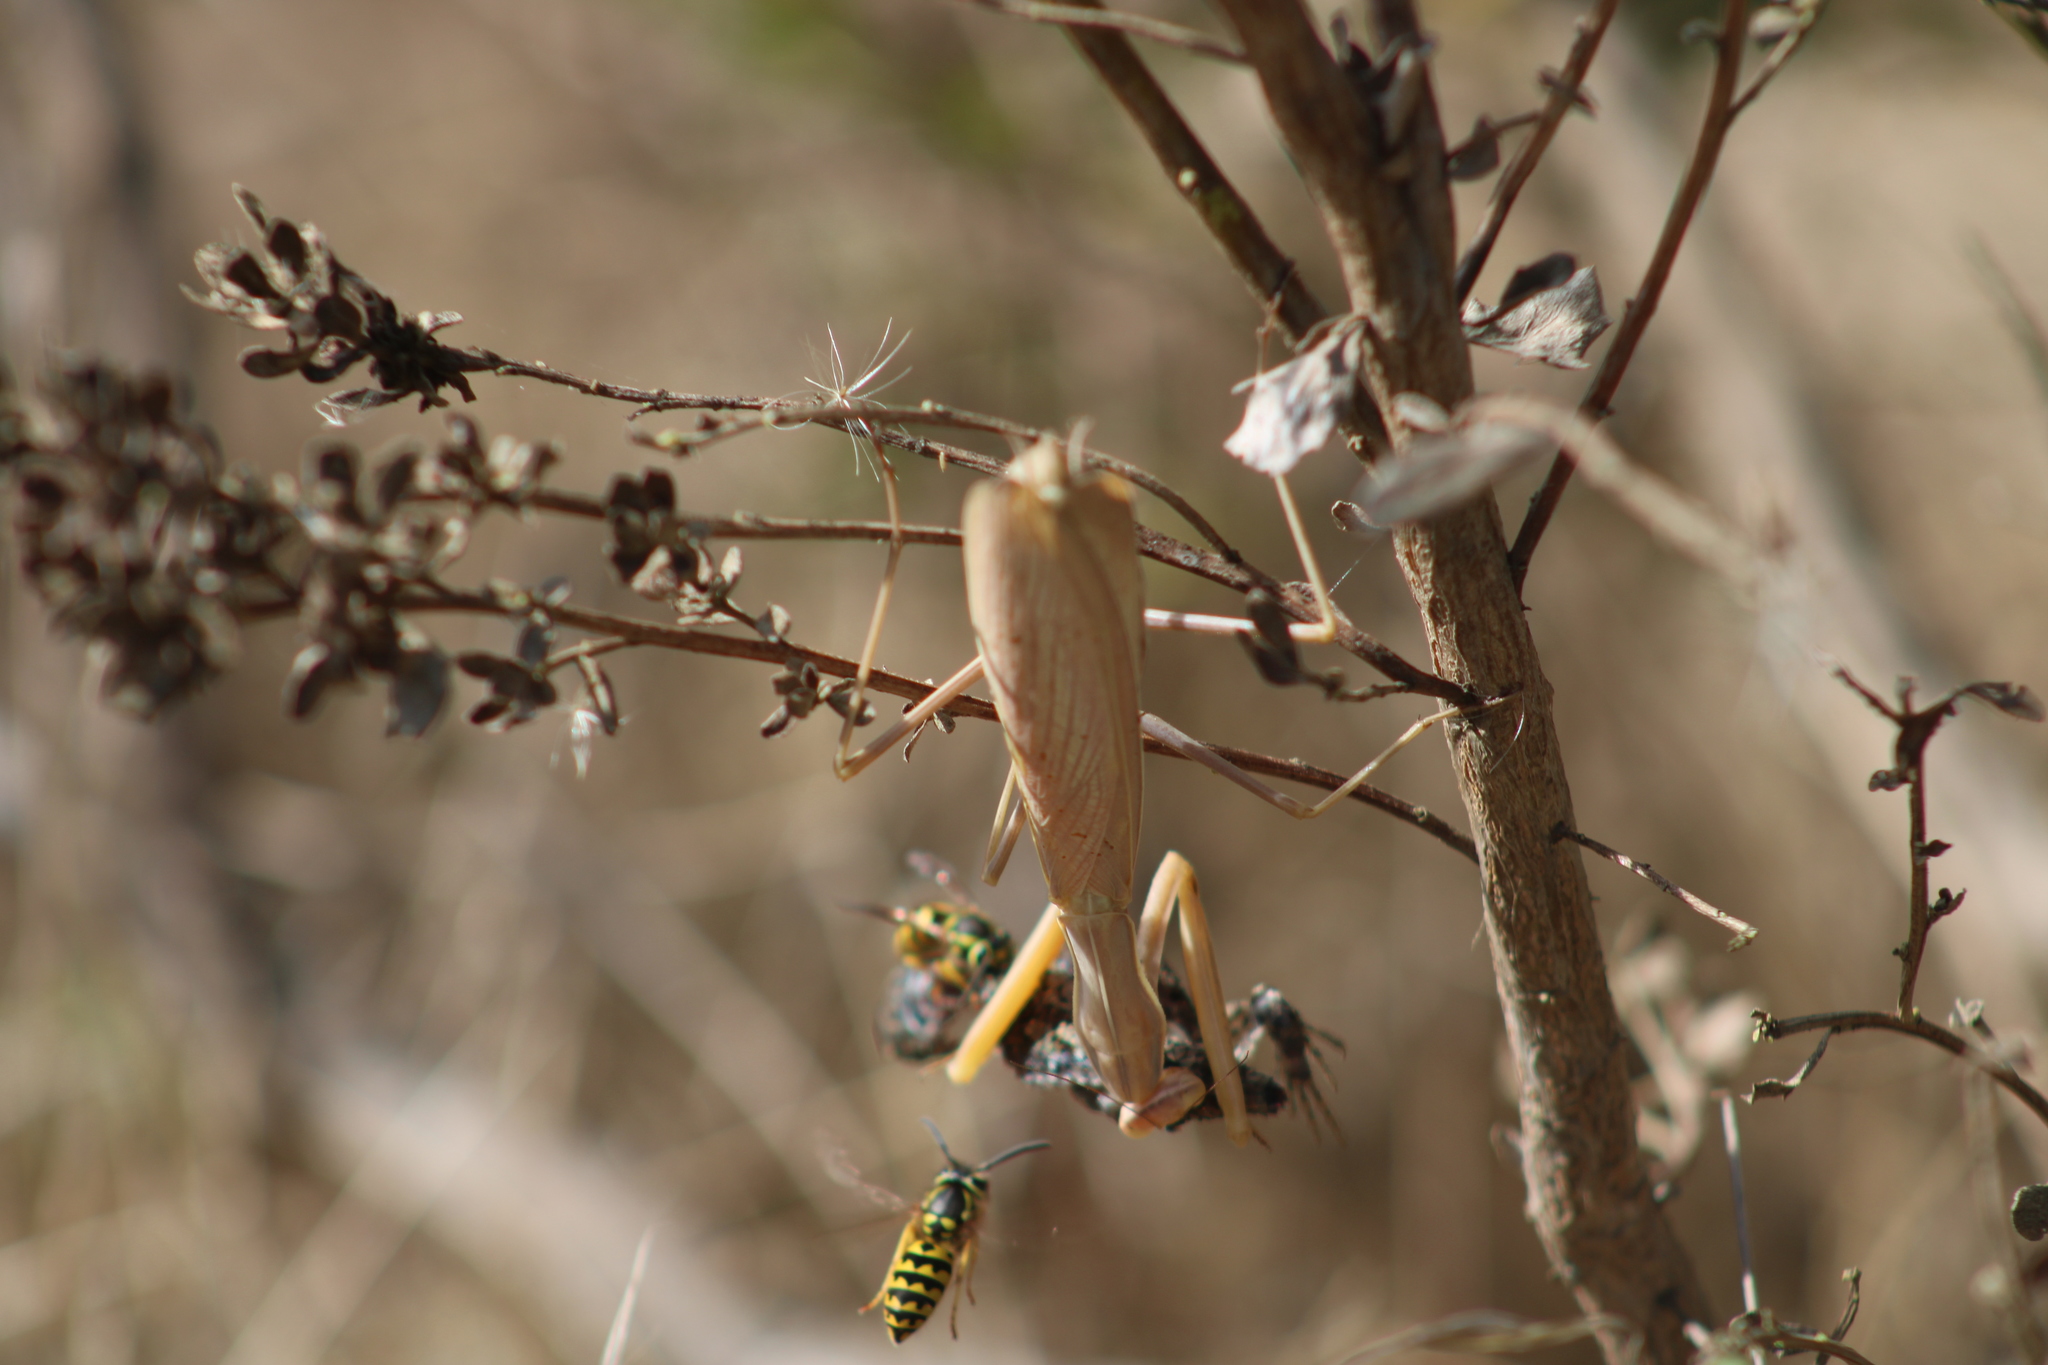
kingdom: Animalia
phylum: Arthropoda
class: Insecta
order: Mantodea
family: Mantidae
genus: Mantis
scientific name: Mantis religiosa
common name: Praying mantis
